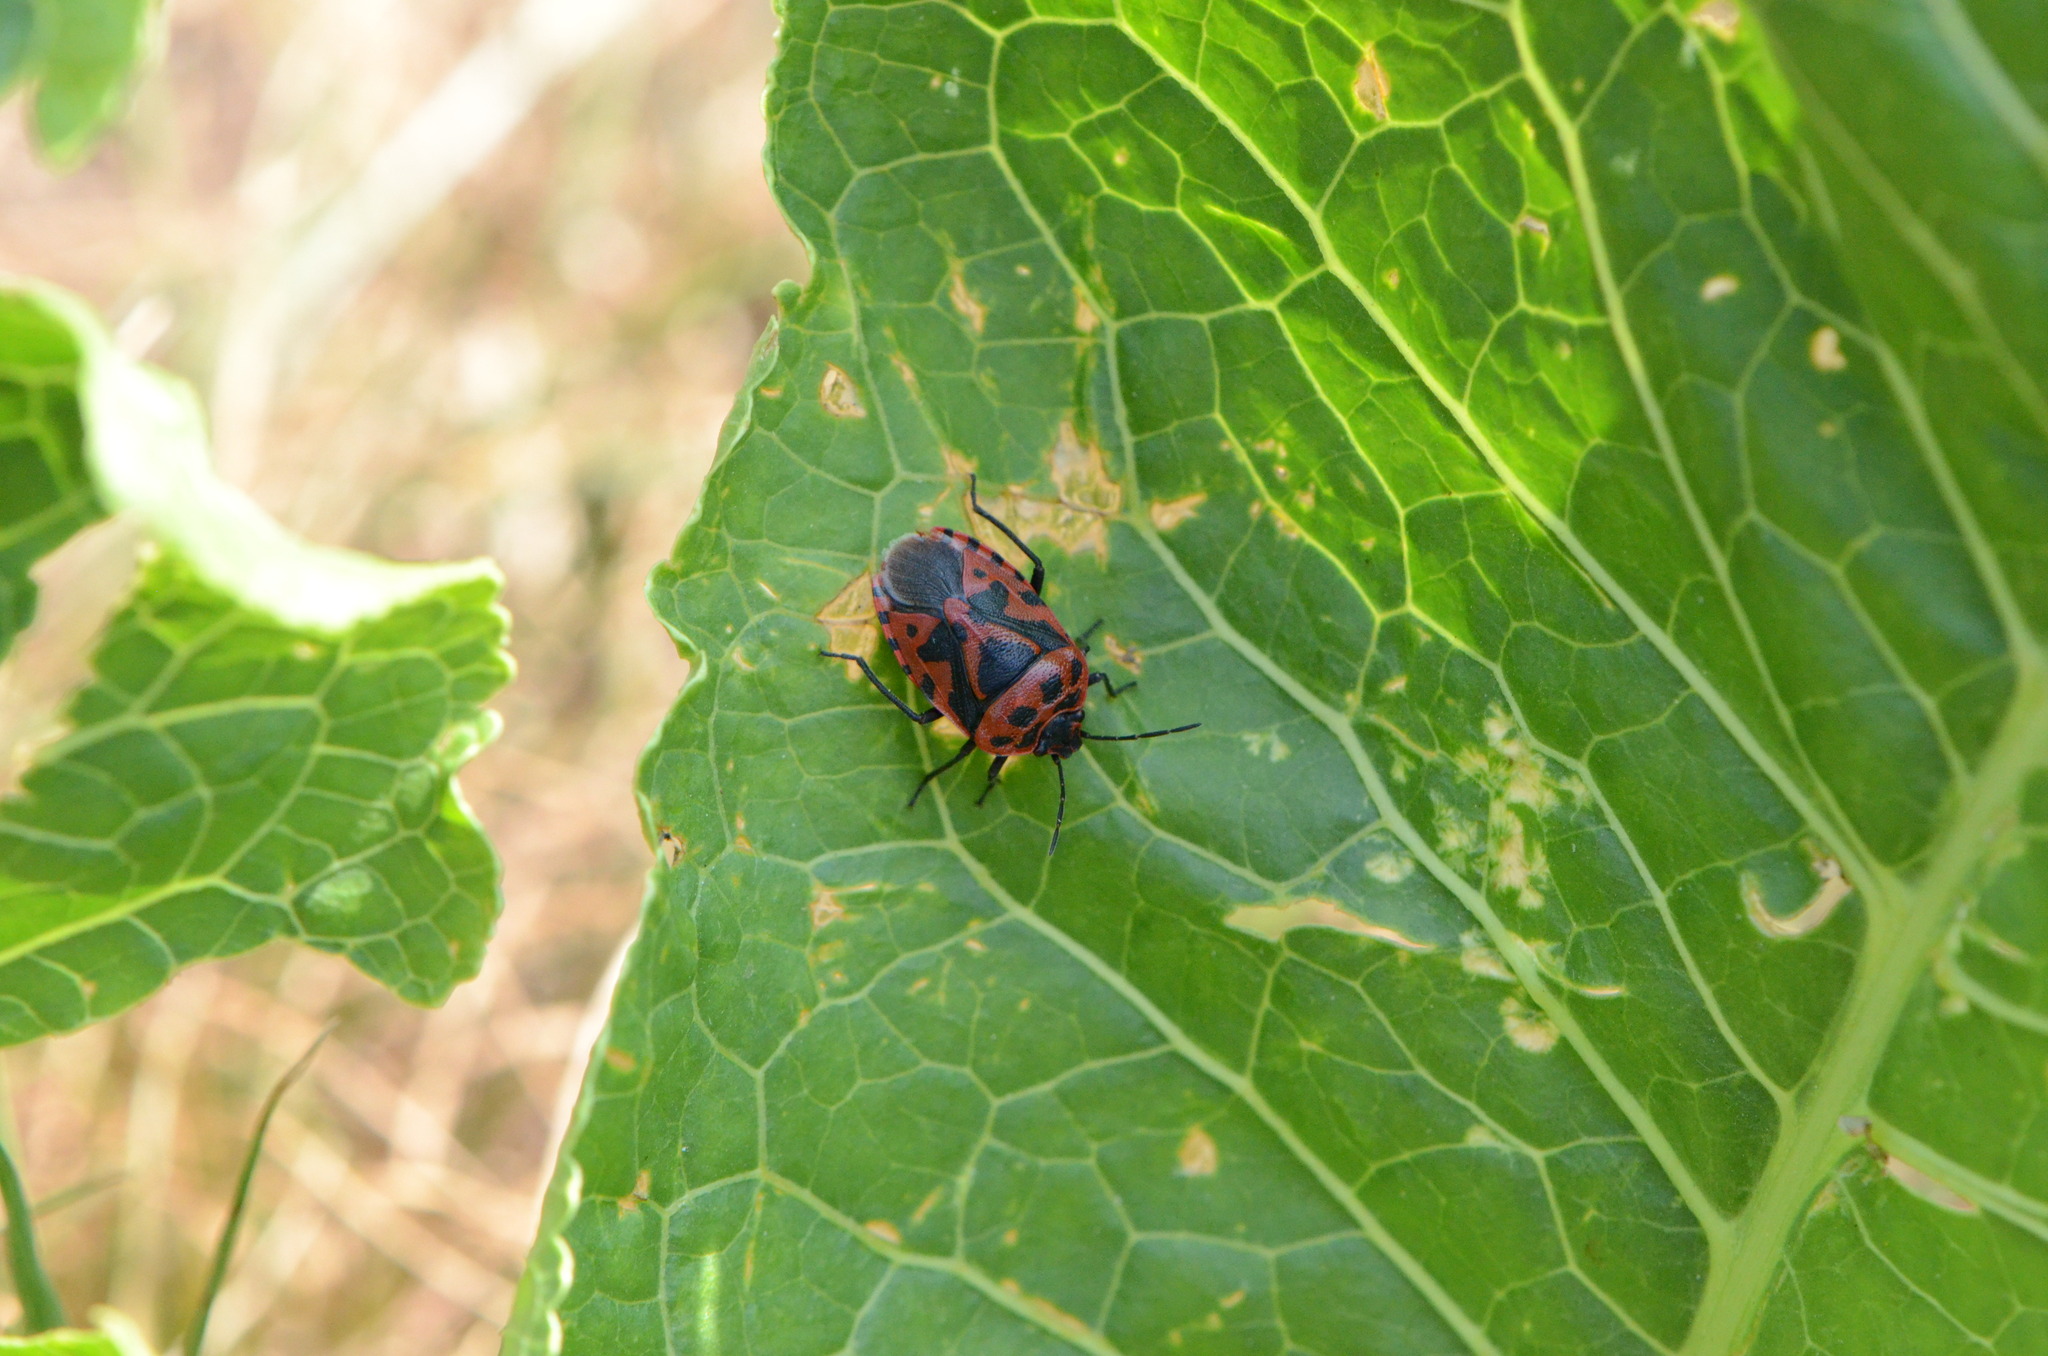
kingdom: Animalia
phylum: Arthropoda
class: Insecta
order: Hemiptera
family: Pentatomidae
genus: Eurydema
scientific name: Eurydema ventralis
